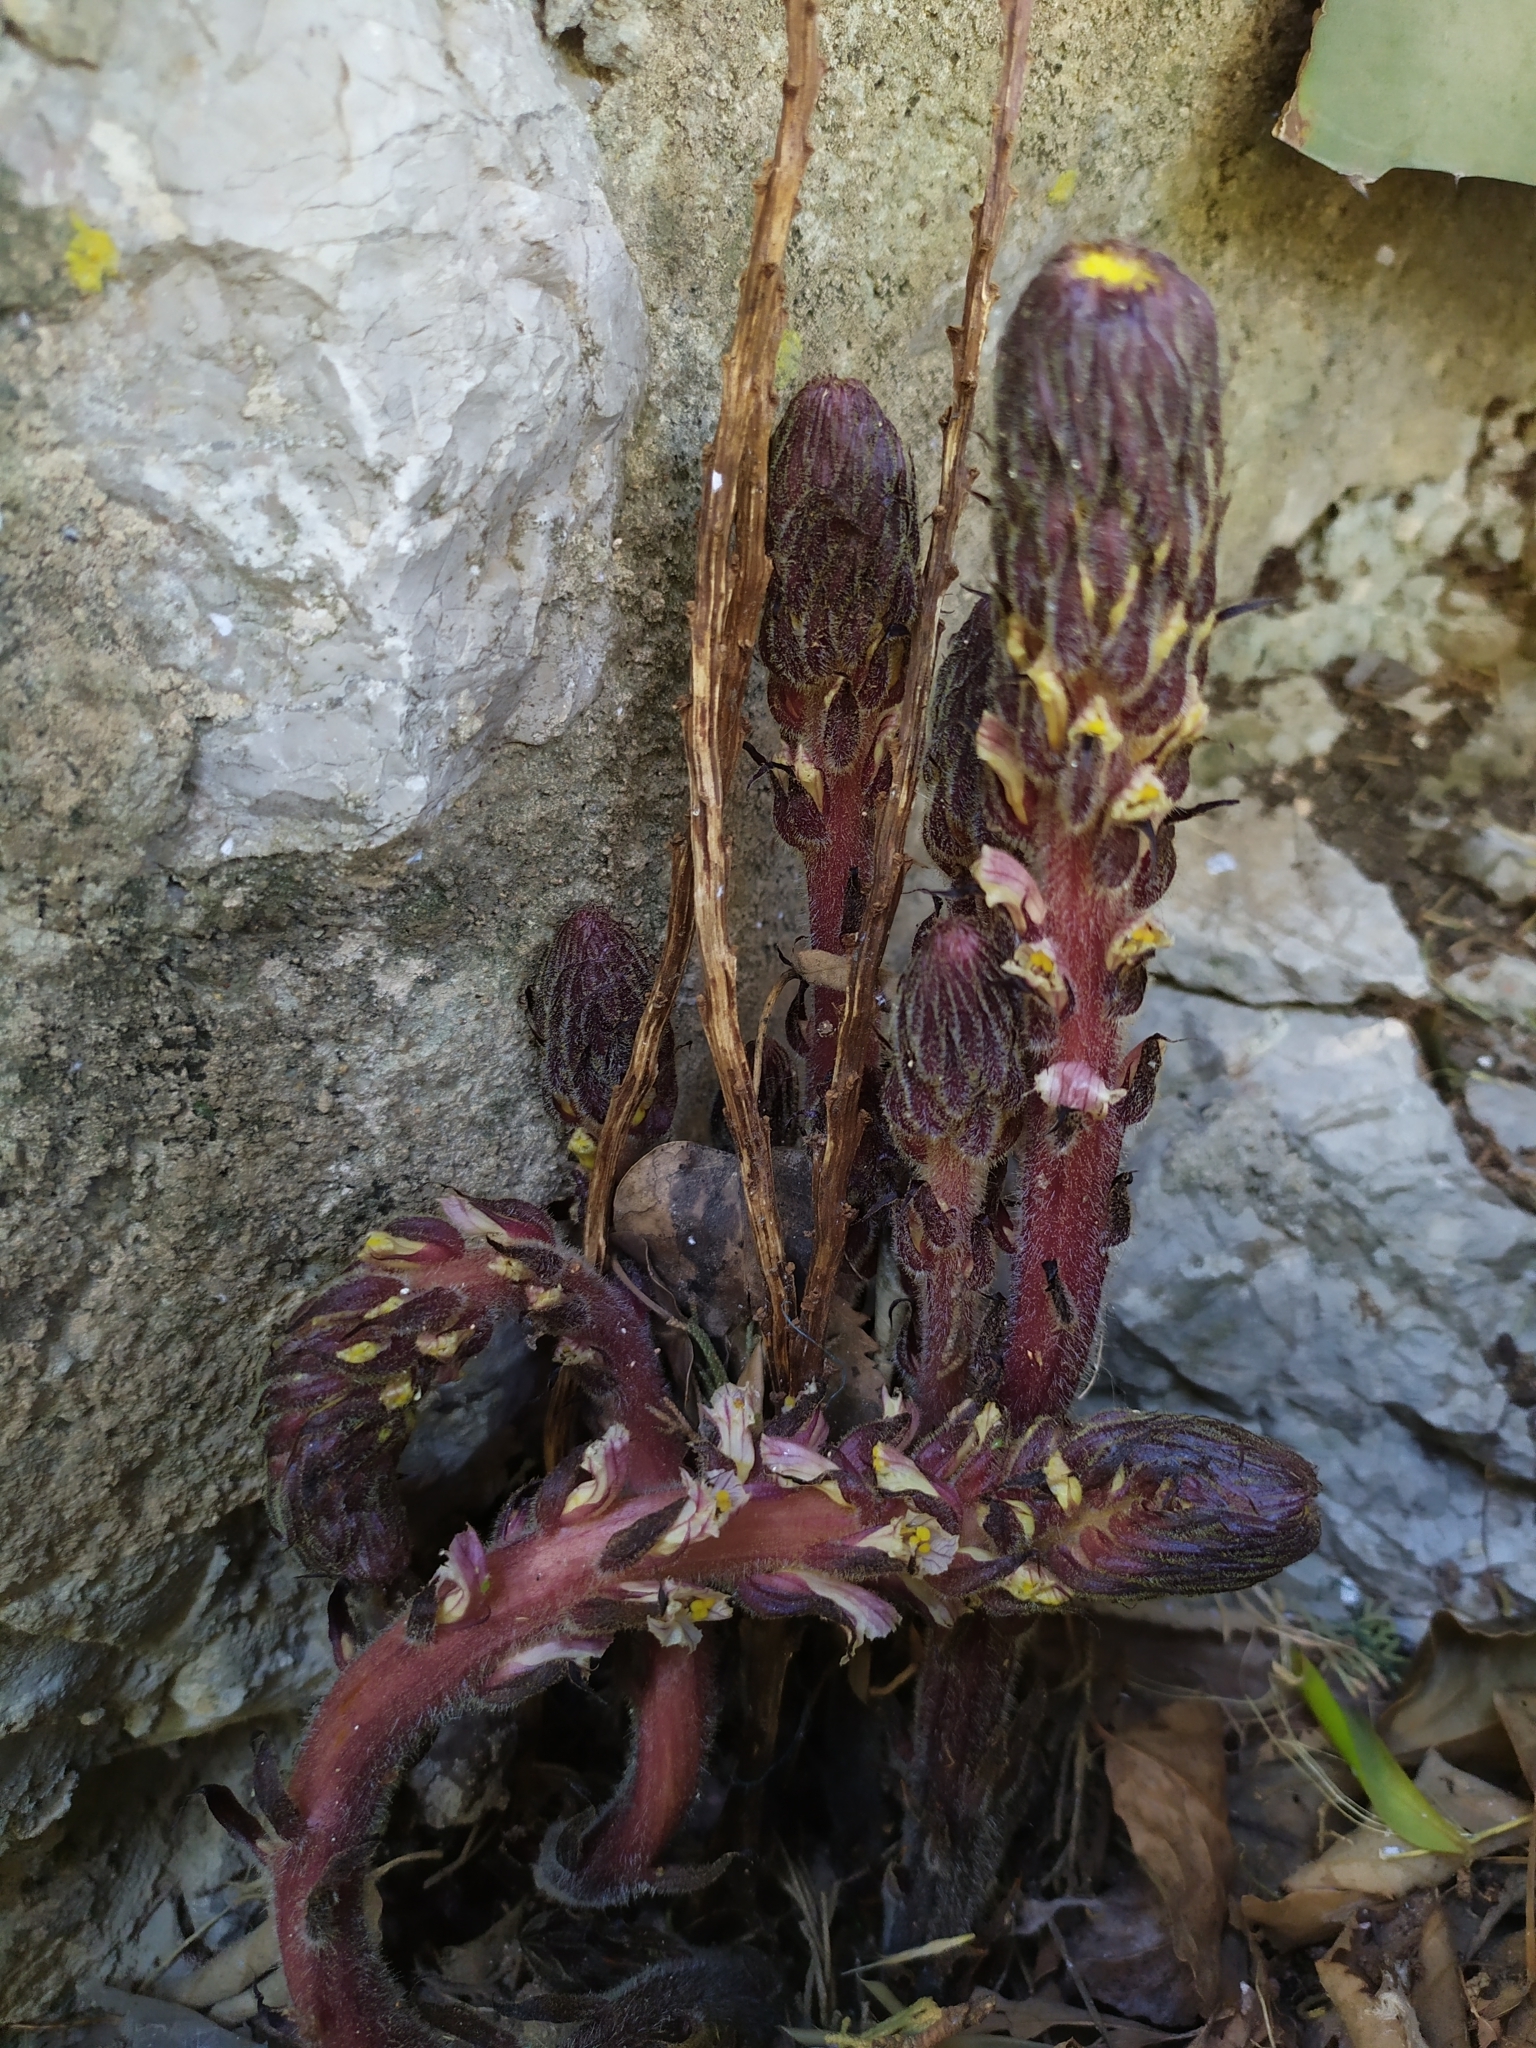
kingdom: Plantae
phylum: Tracheophyta
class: Magnoliopsida
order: Lamiales
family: Orobanchaceae
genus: Orobanche
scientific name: Orobanche hederae
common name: Ivy broomrape
